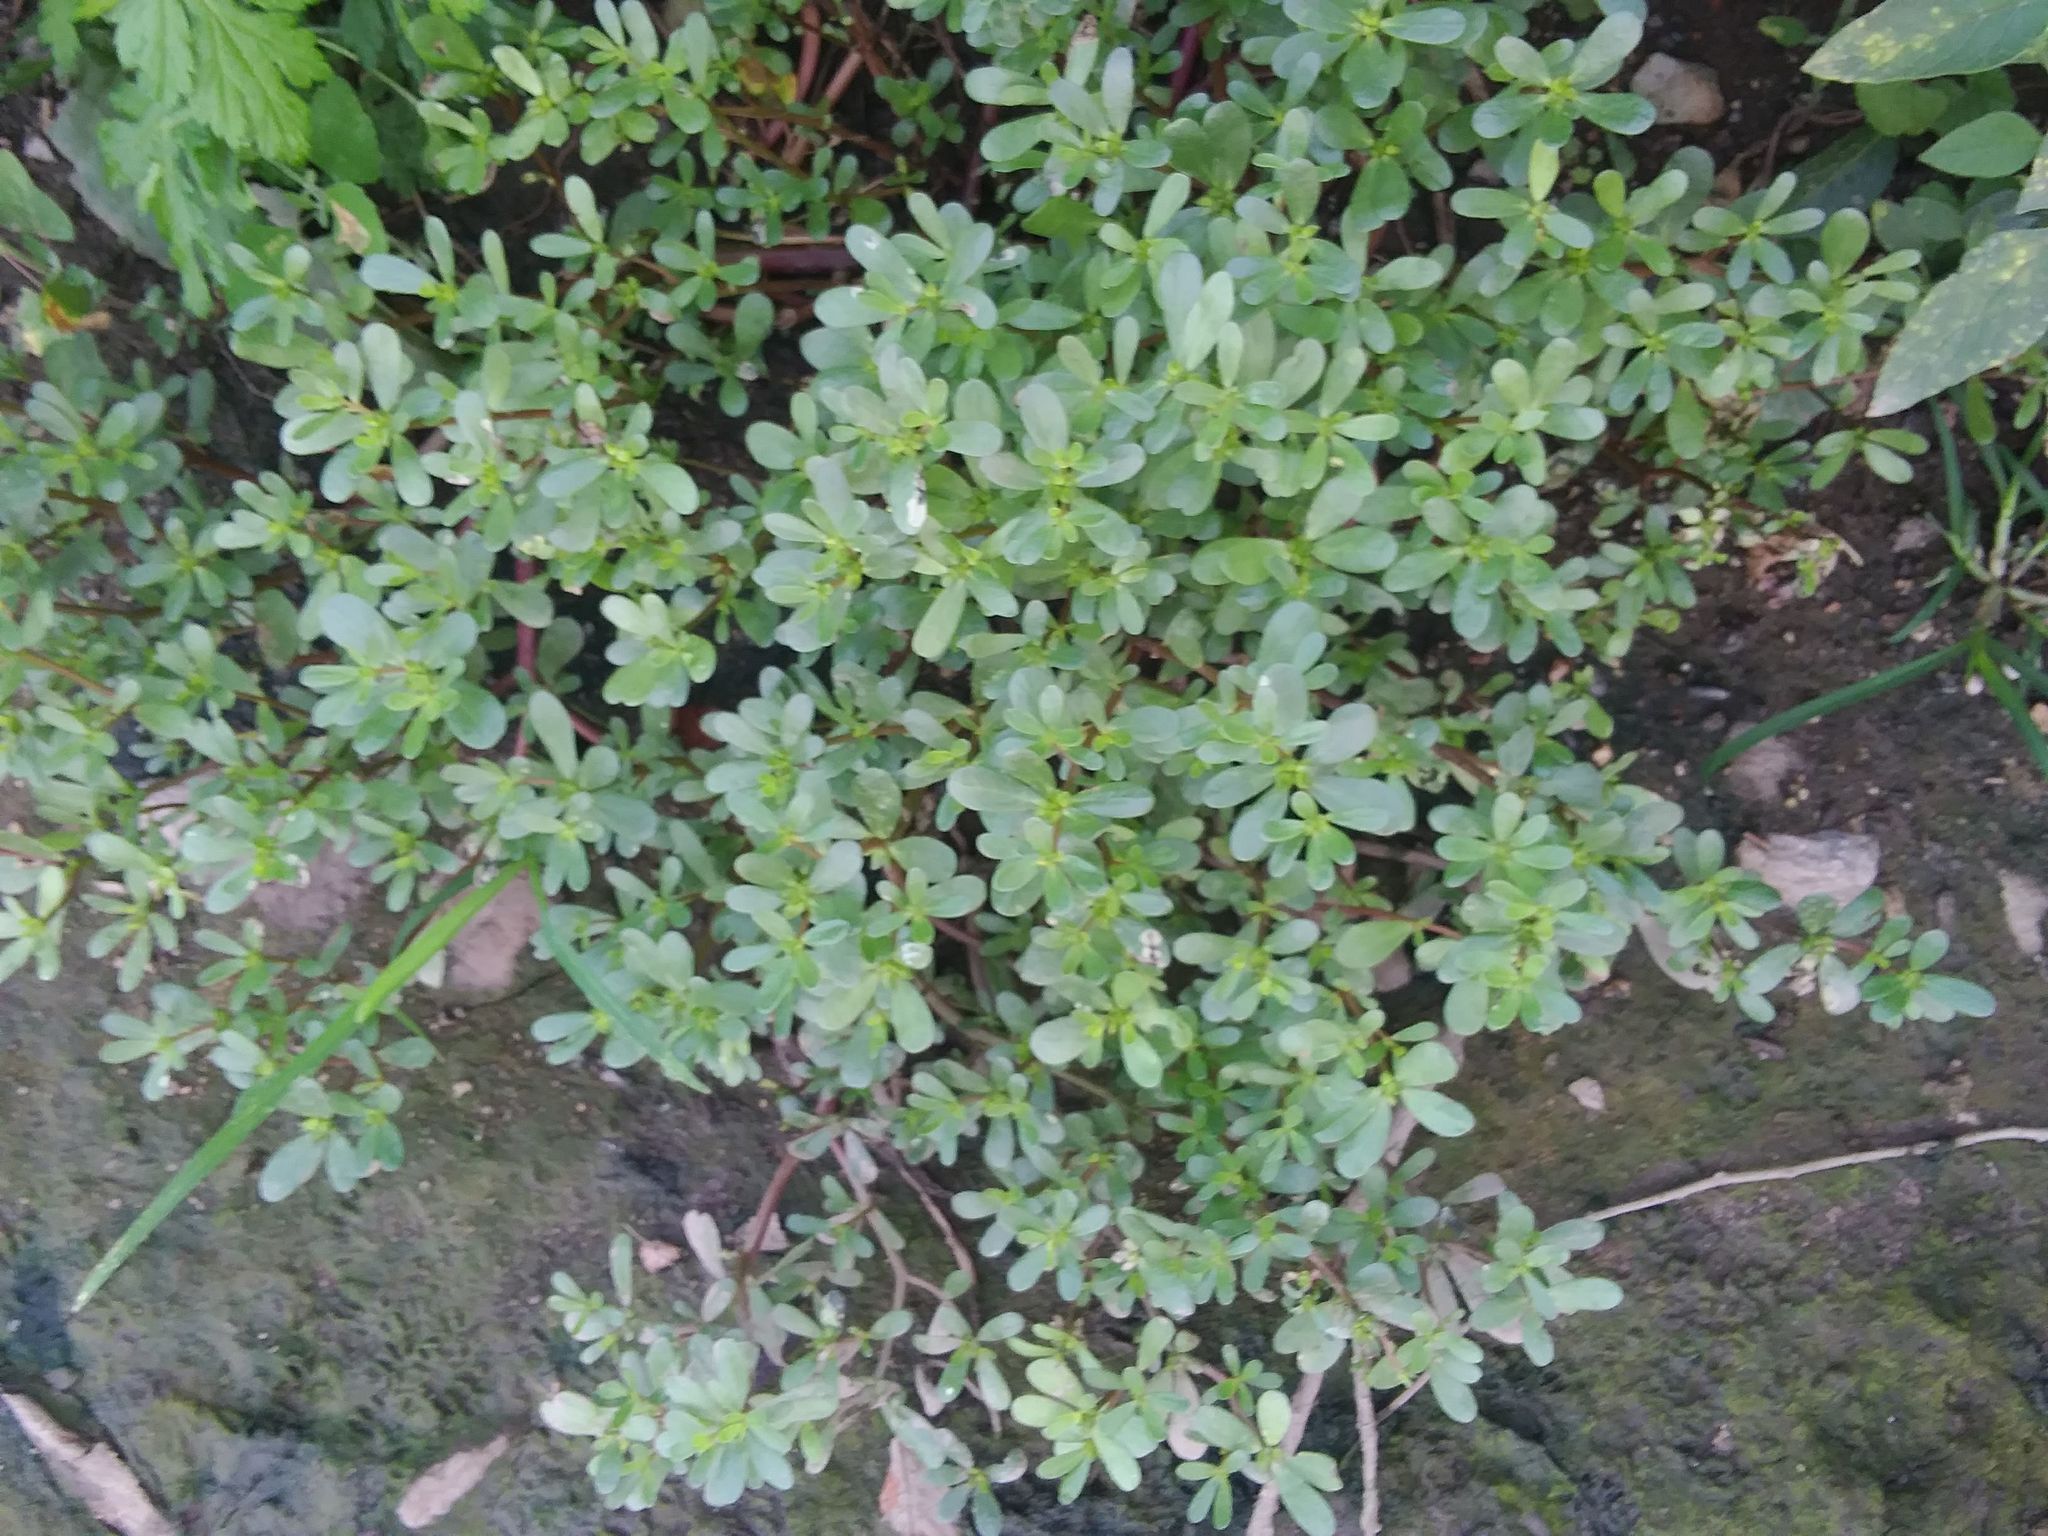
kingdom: Plantae
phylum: Tracheophyta
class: Magnoliopsida
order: Caryophyllales
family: Portulacaceae
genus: Portulaca
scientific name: Portulaca oleracea
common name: Common purslane
